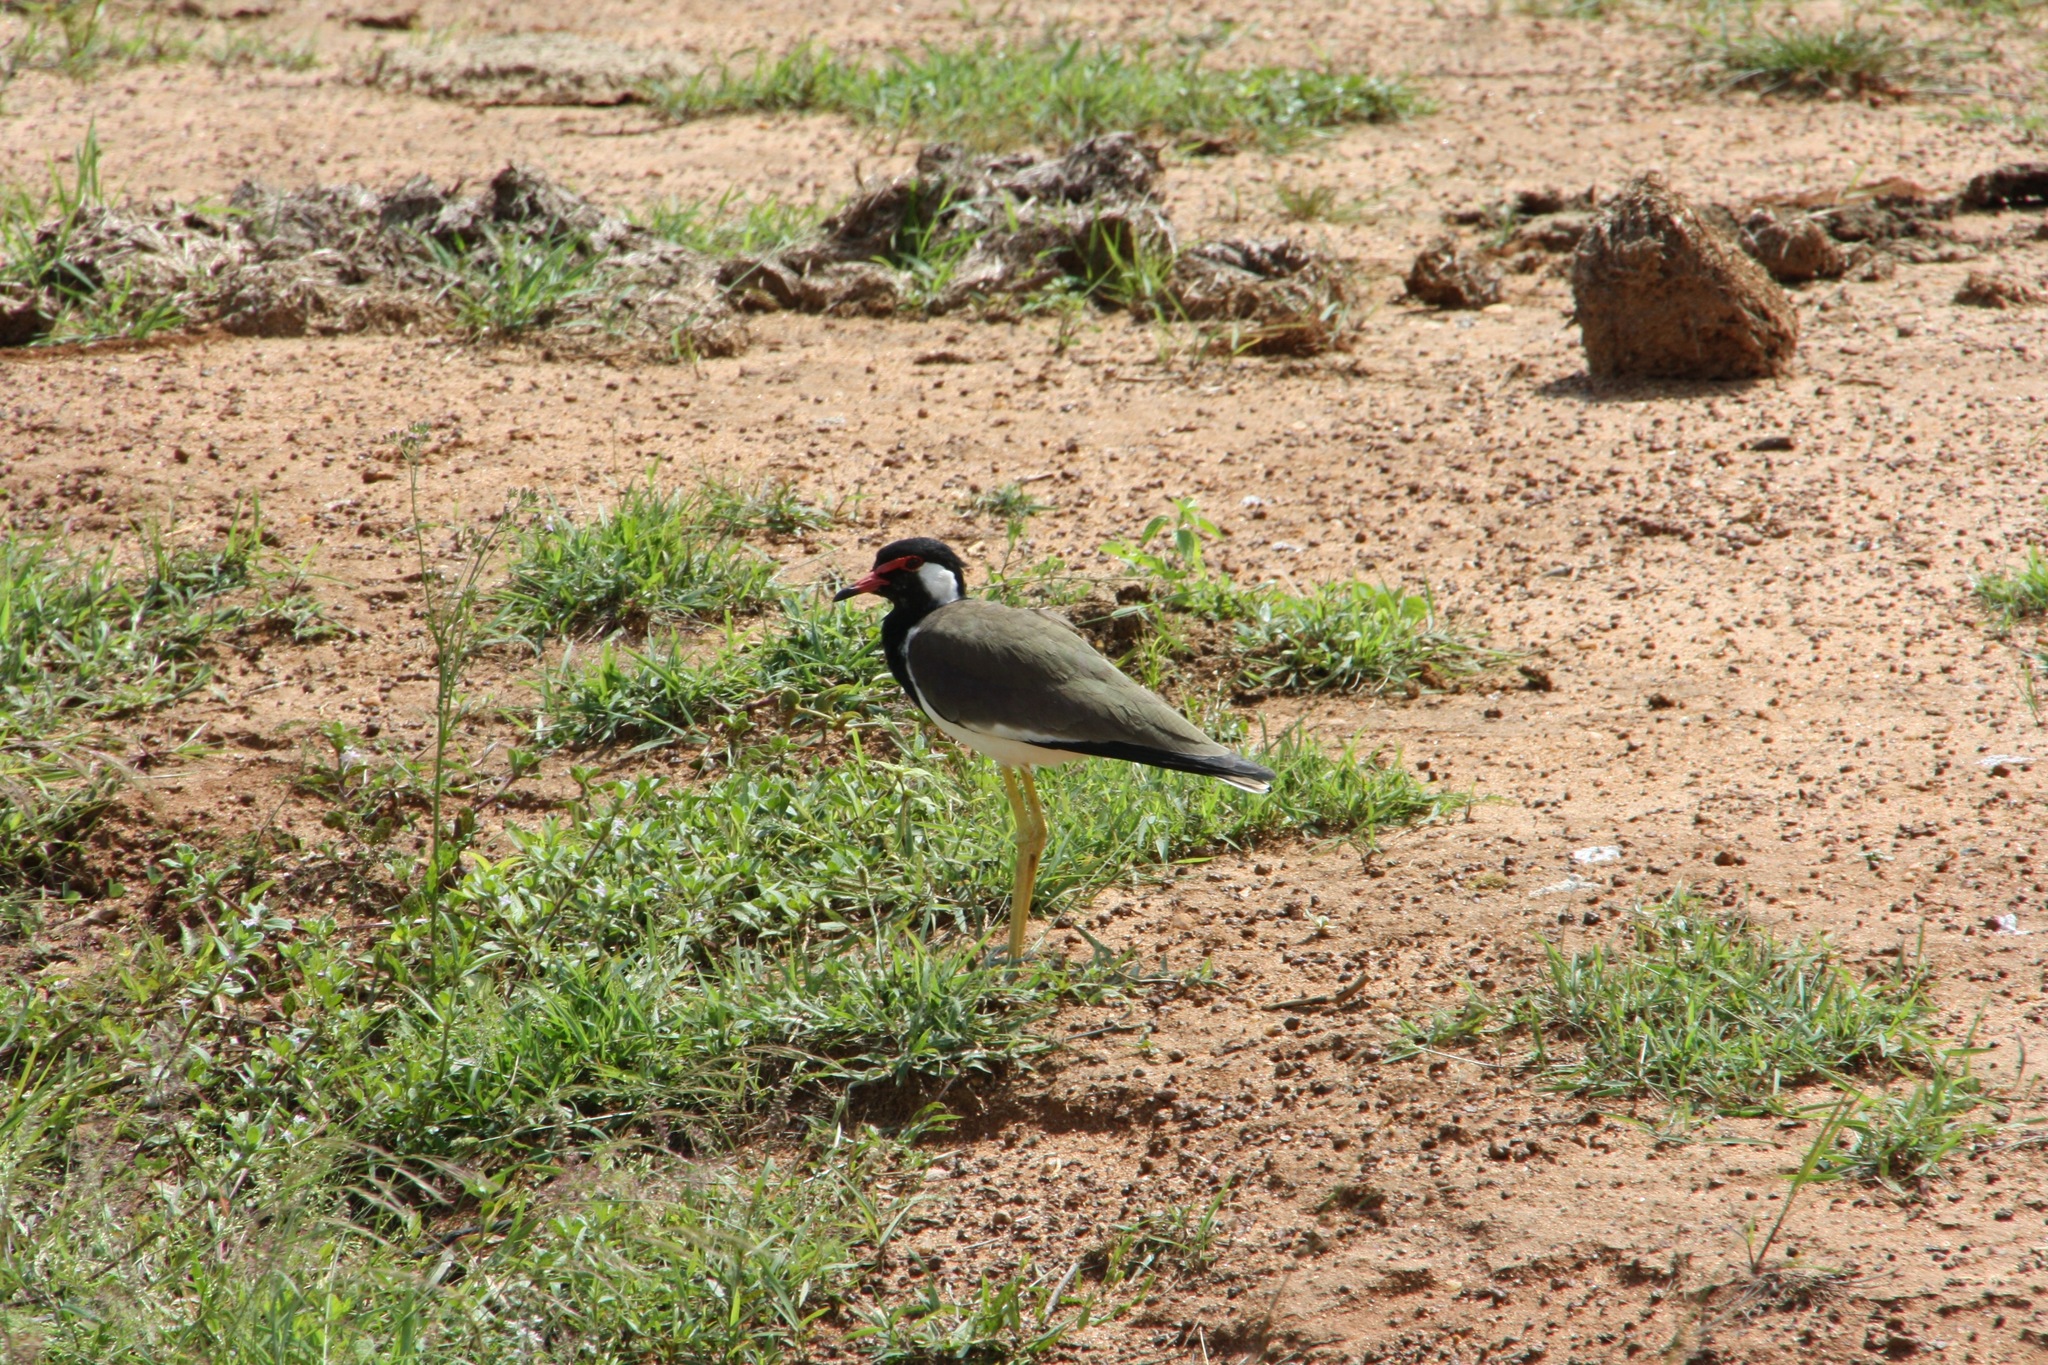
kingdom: Animalia
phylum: Chordata
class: Aves
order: Charadriiformes
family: Charadriidae
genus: Vanellus
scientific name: Vanellus indicus
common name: Red-wattled lapwing
